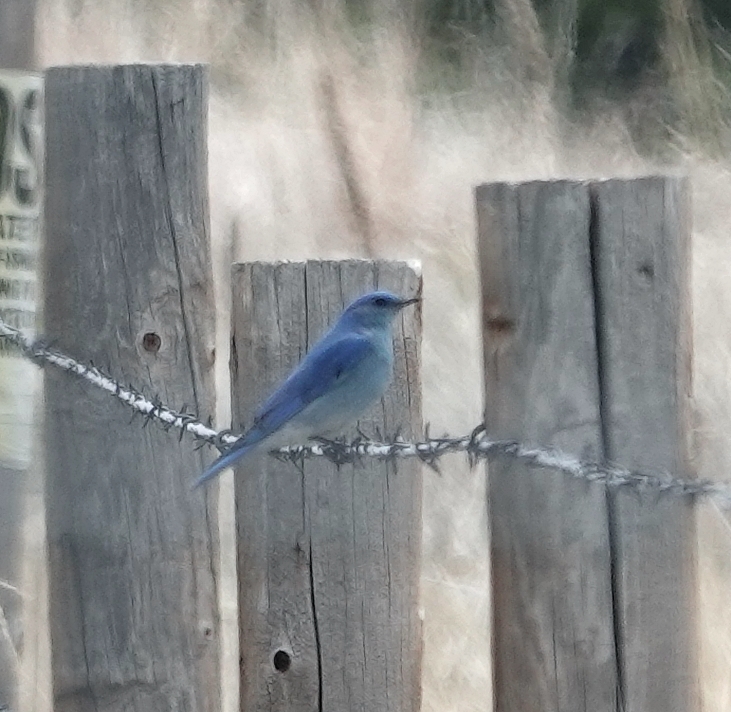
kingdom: Animalia
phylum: Chordata
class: Aves
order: Passeriformes
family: Turdidae
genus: Sialia
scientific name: Sialia currucoides
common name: Mountain bluebird
